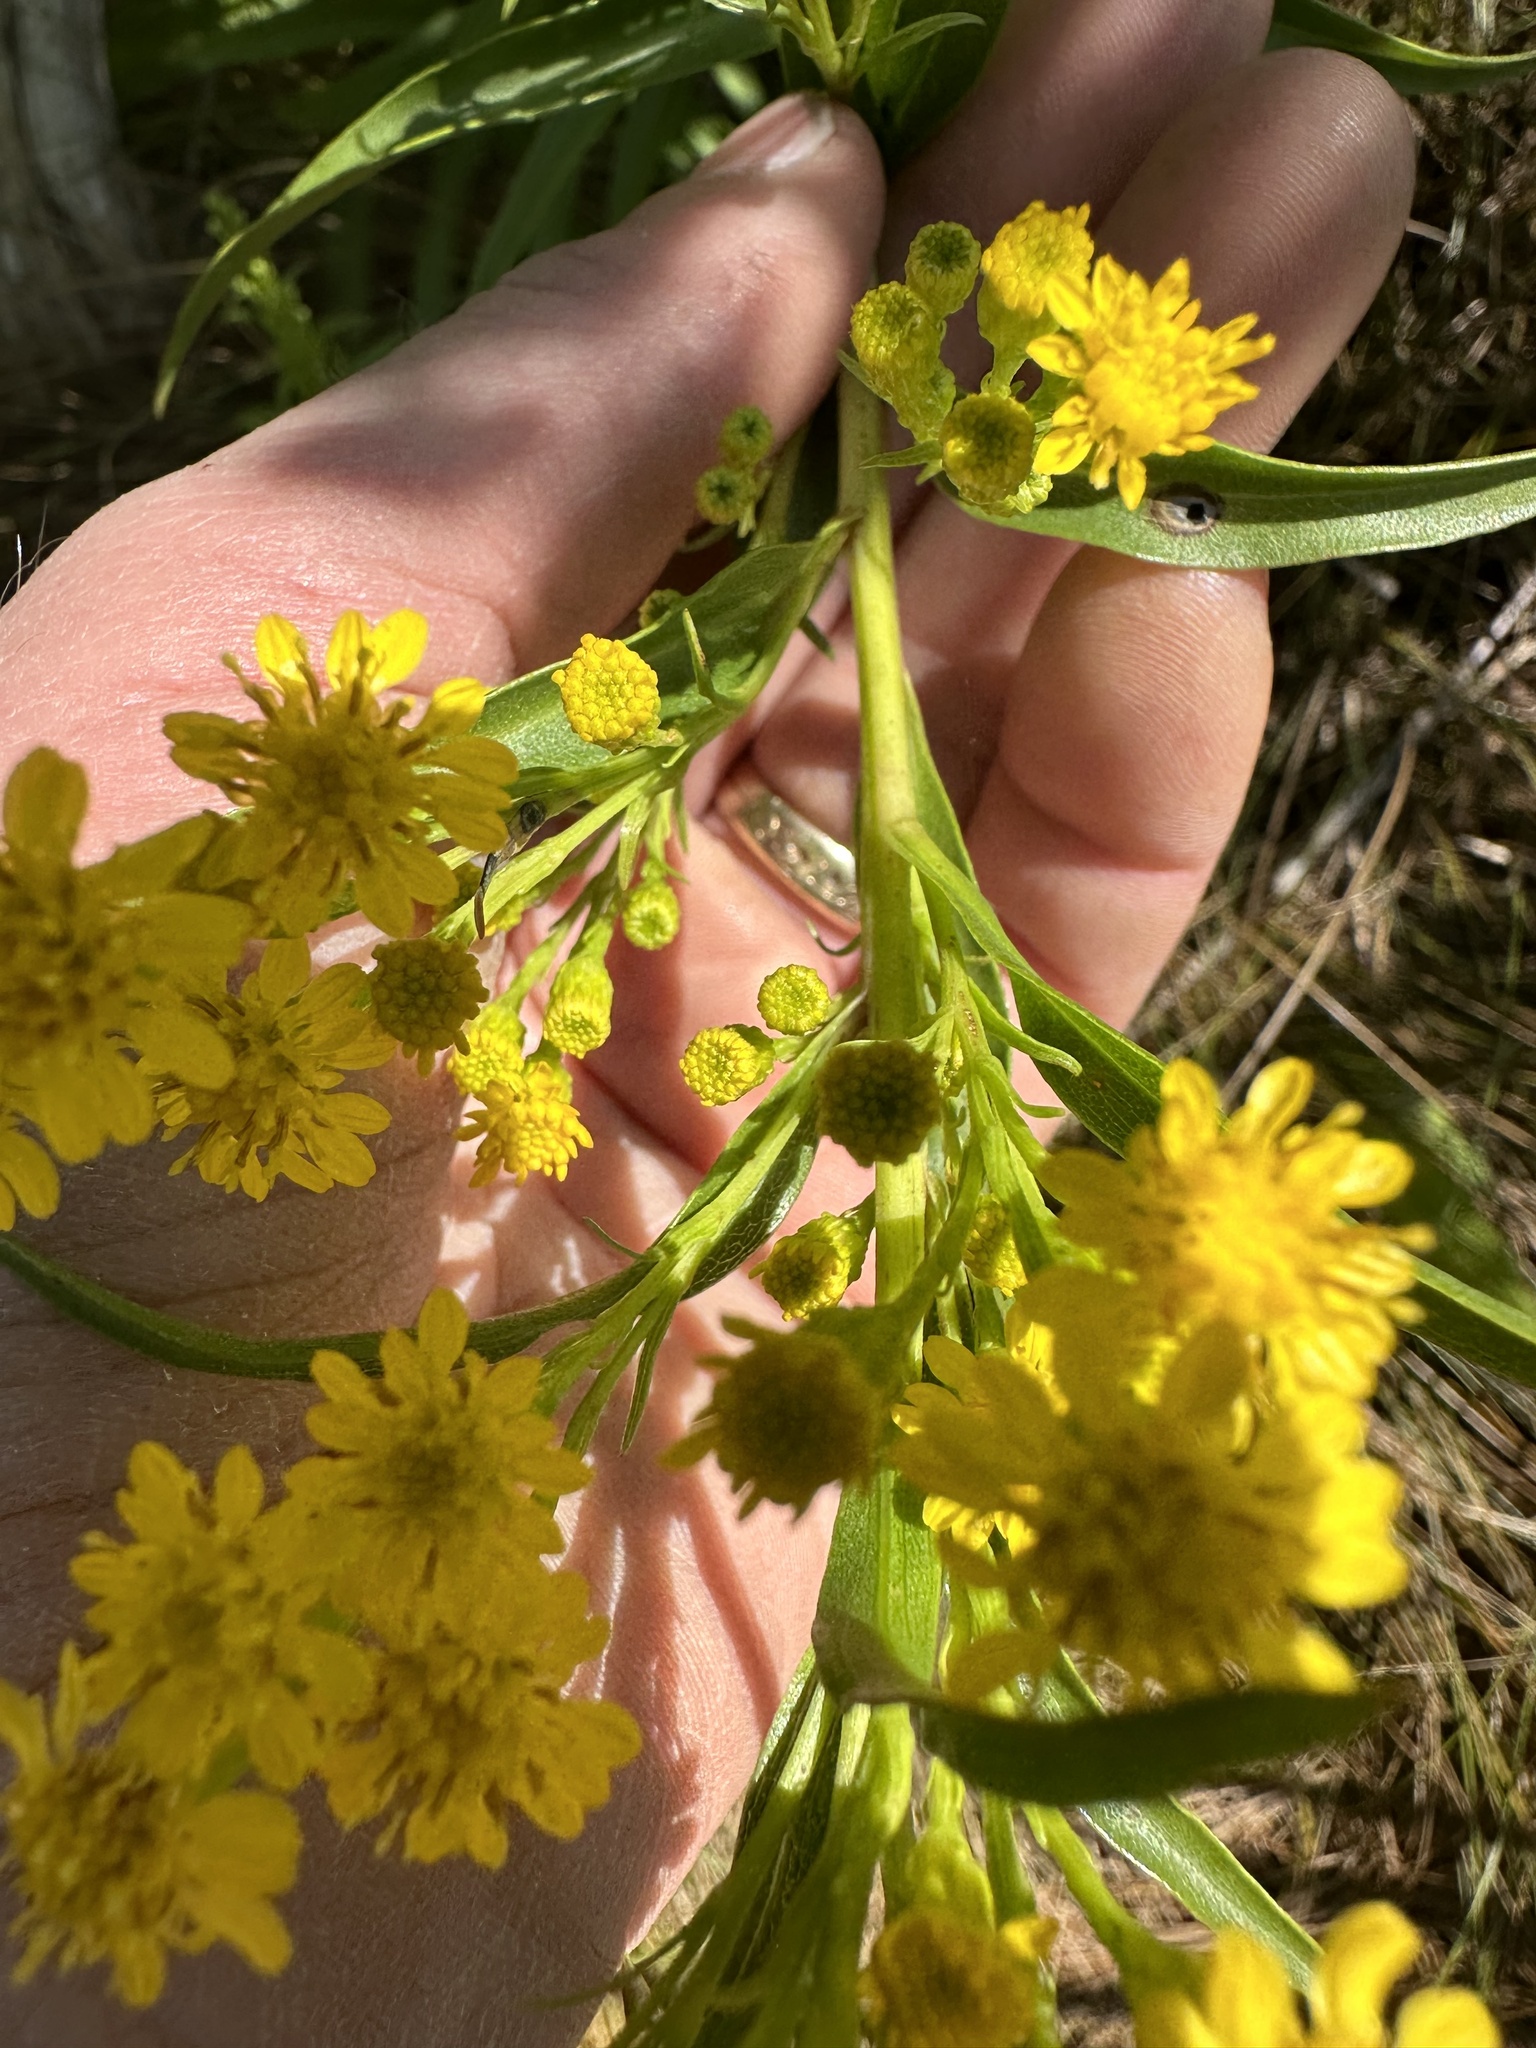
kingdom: Plantae
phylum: Tracheophyta
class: Magnoliopsida
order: Asterales
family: Asteraceae
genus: Solidago
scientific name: Solidago sempervirens
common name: Salt-marsh goldenrod
